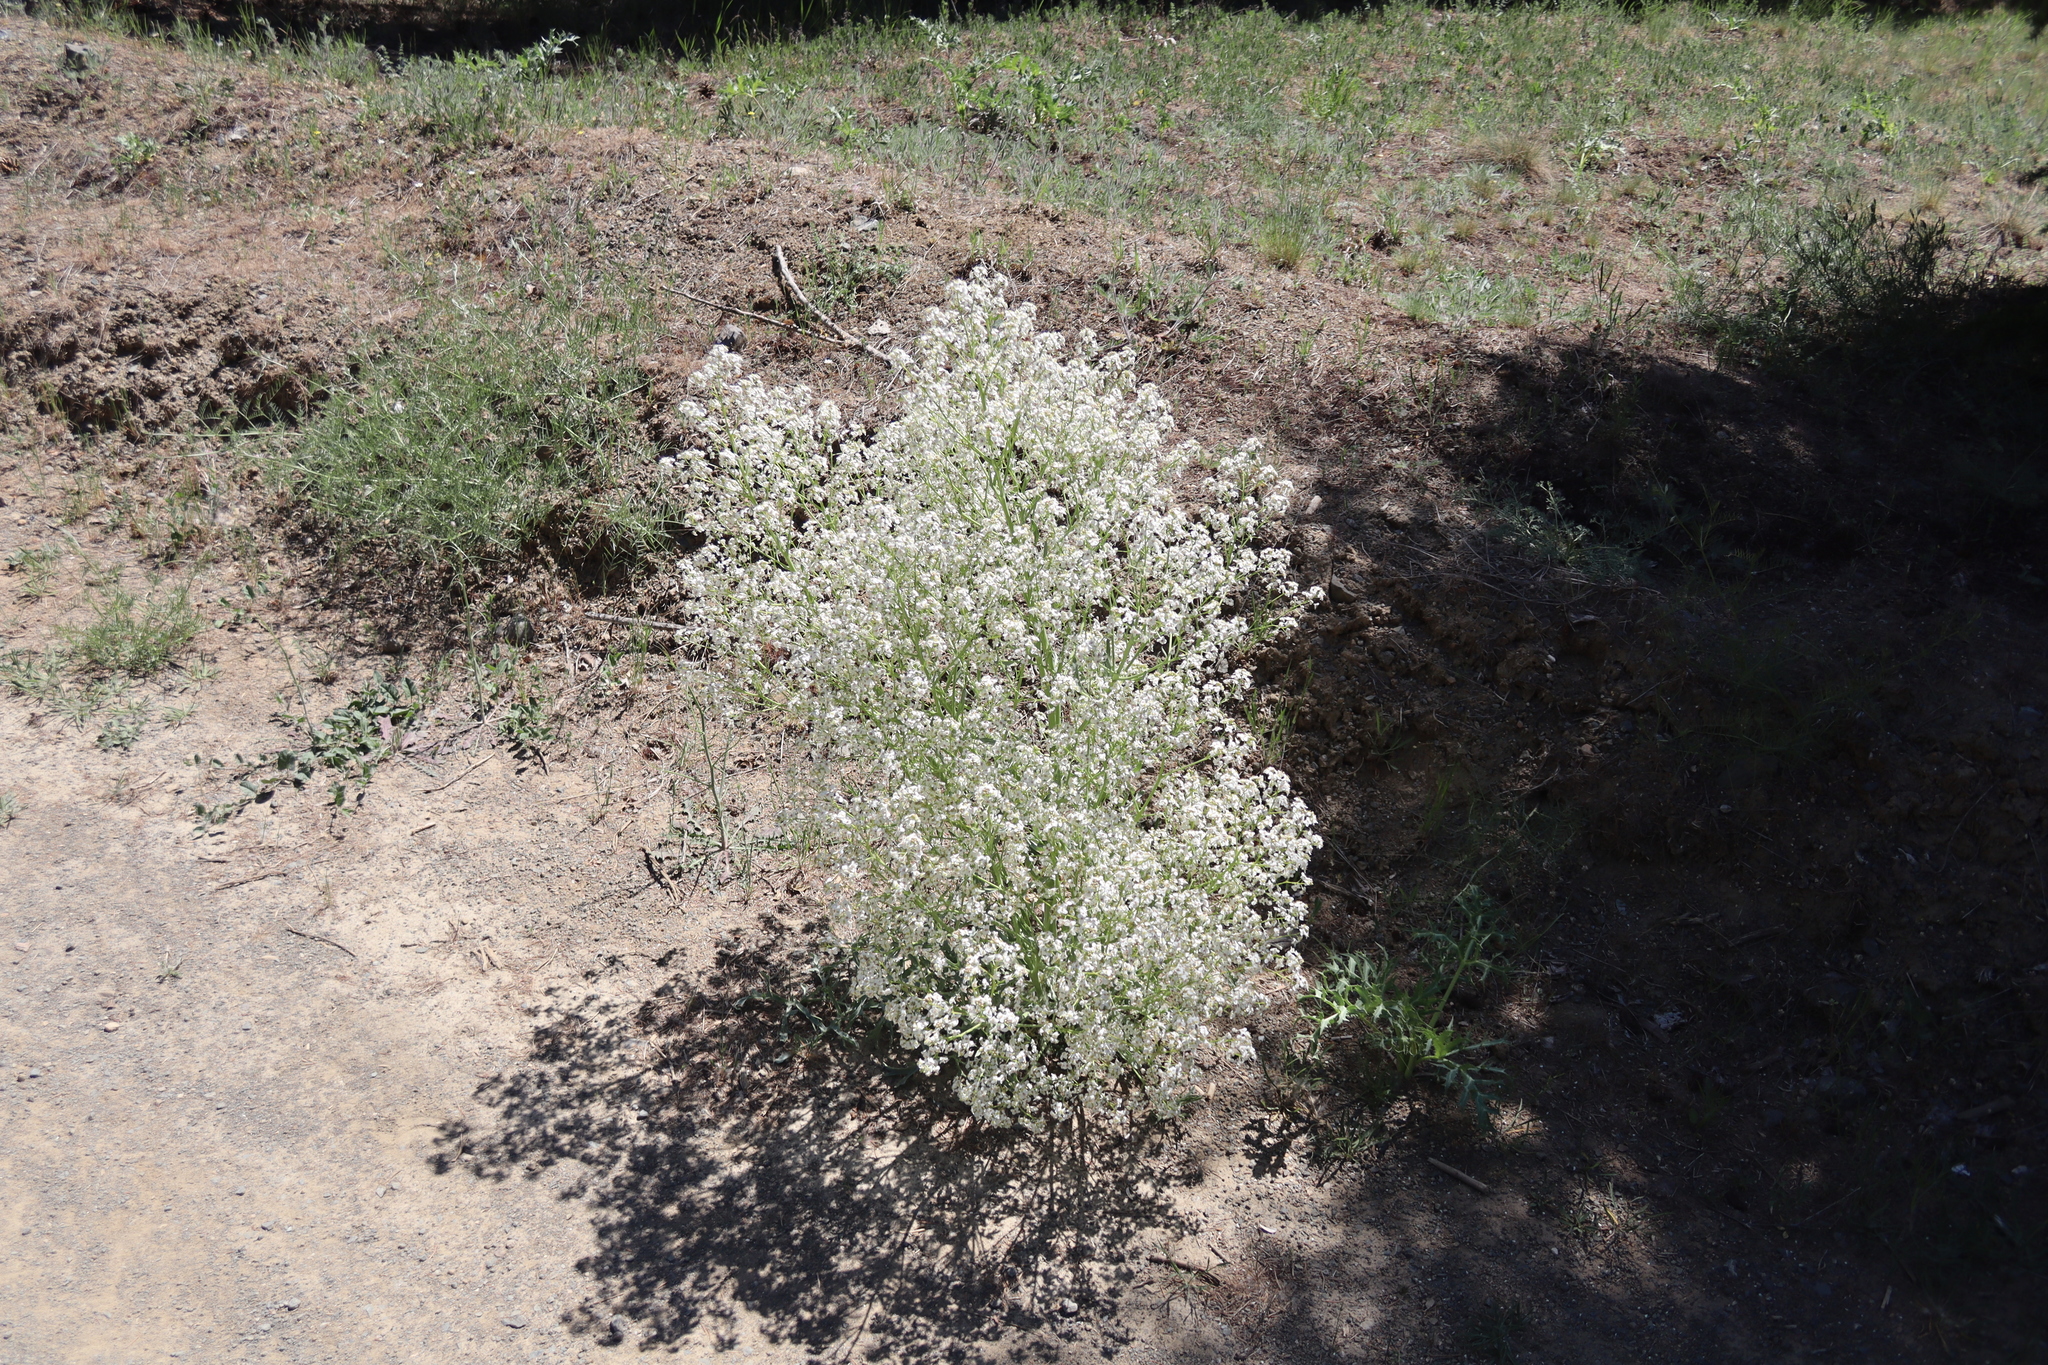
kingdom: Plantae
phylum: Tracheophyta
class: Magnoliopsida
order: Brassicales
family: Brassicaceae
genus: Crambe
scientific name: Crambe tataria
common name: Tartarian breadplant
